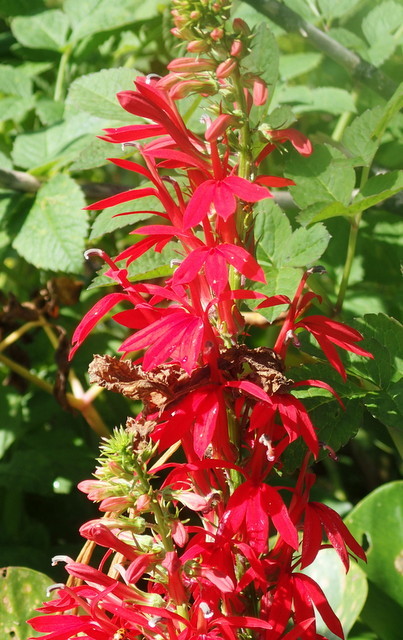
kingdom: Plantae
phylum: Tracheophyta
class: Magnoliopsida
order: Asterales
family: Campanulaceae
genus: Lobelia
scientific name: Lobelia cardinalis
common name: Cardinal flower
